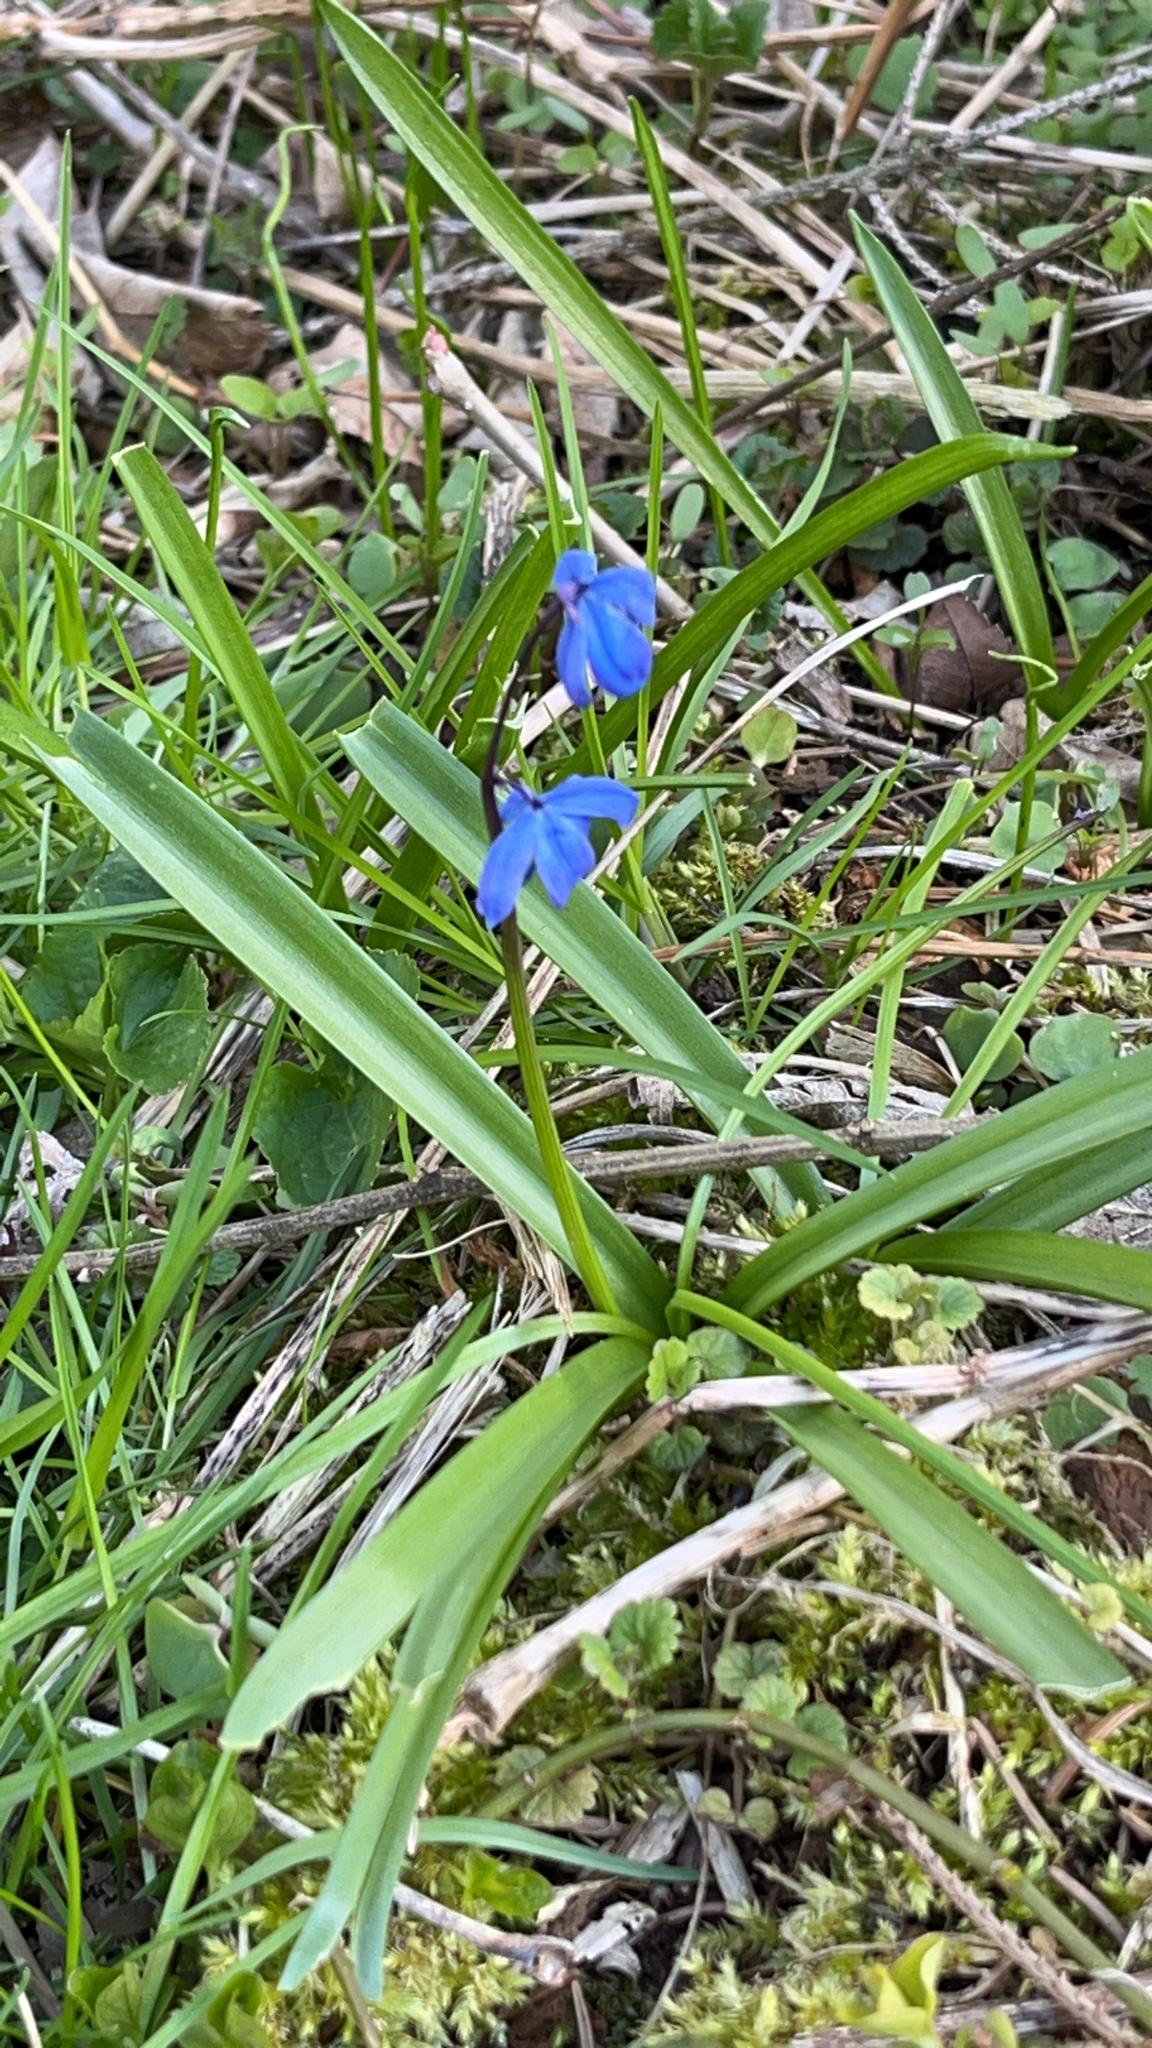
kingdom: Plantae
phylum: Tracheophyta
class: Liliopsida
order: Asparagales
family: Asparagaceae
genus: Scilla
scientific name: Scilla siberica
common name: Siberian squill
